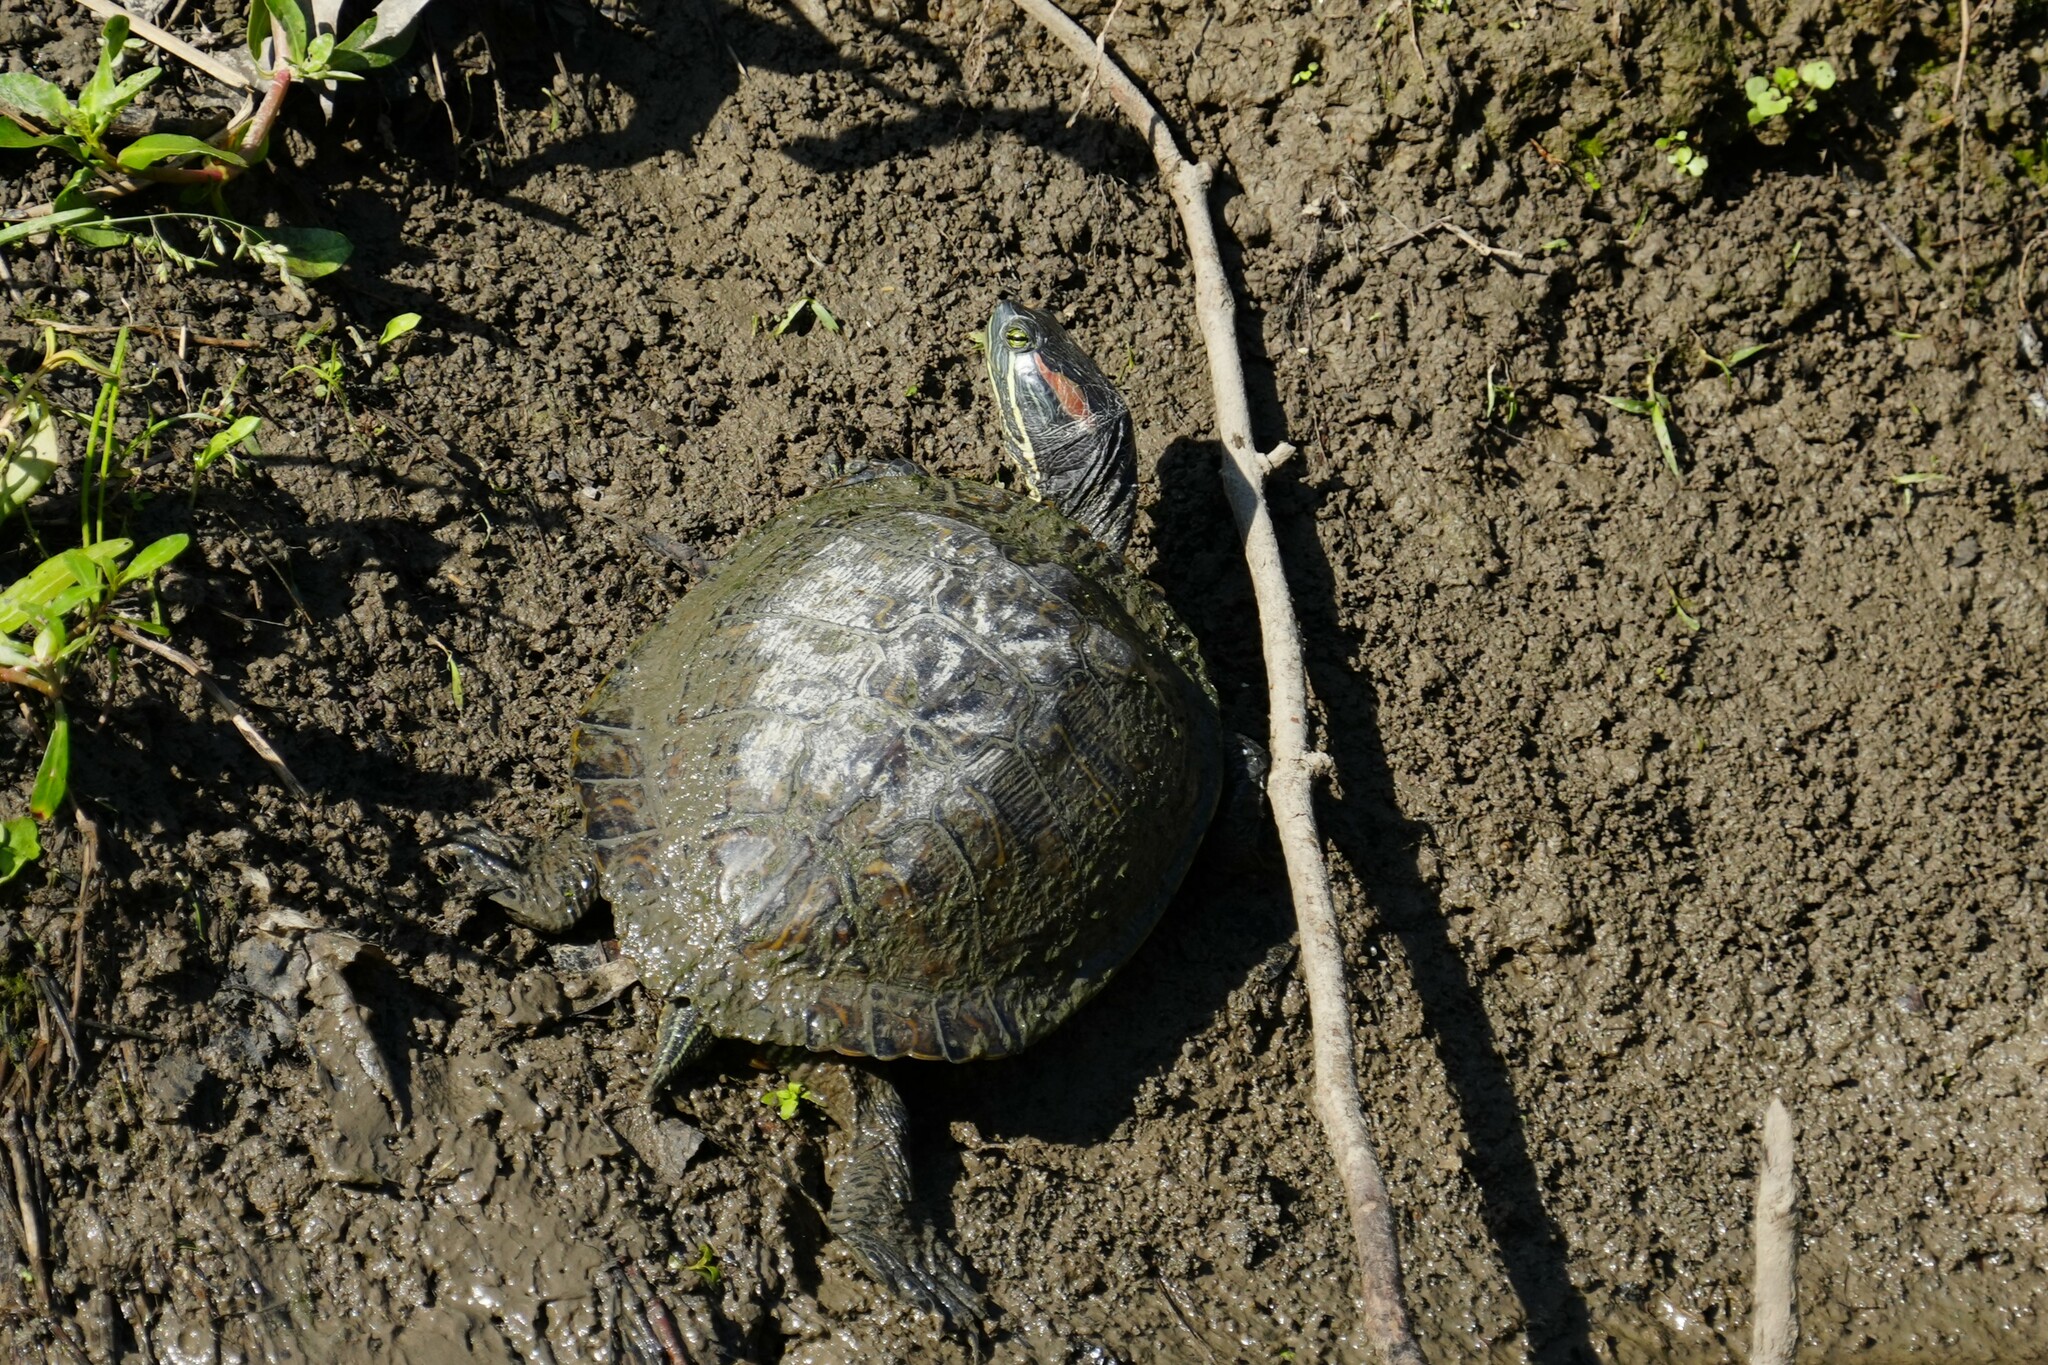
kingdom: Animalia
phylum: Chordata
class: Testudines
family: Emydidae
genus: Trachemys
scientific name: Trachemys scripta
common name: Slider
